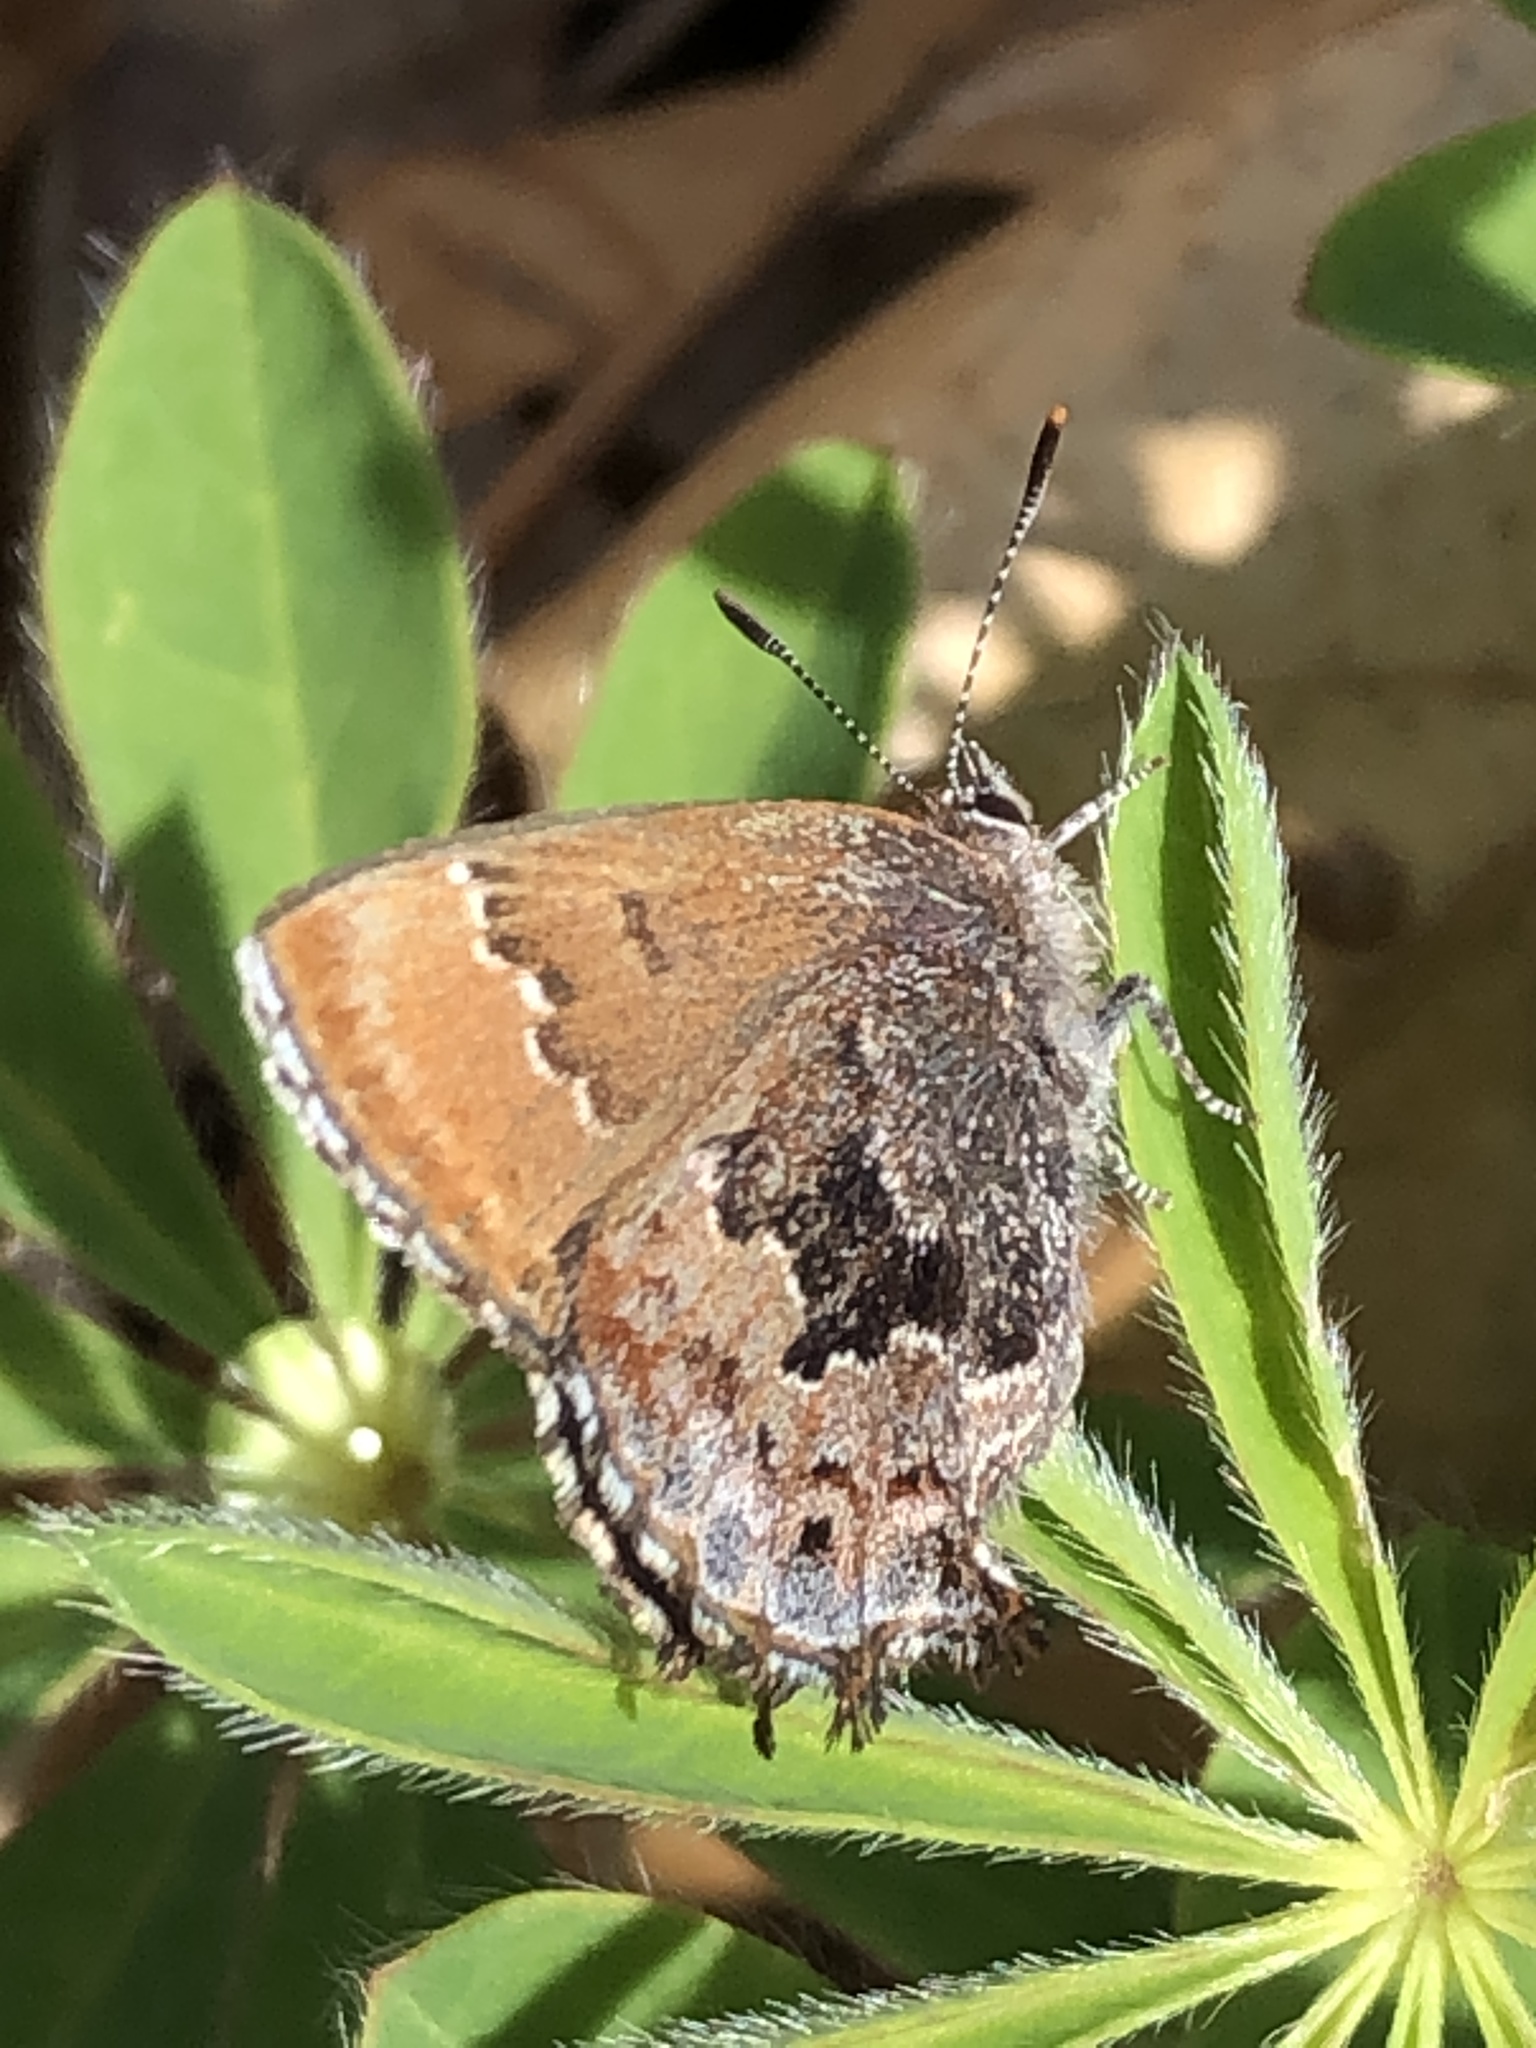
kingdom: Animalia
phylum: Arthropoda
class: Insecta
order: Lepidoptera
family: Lycaenidae
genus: Thecla
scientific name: Thecla irus
